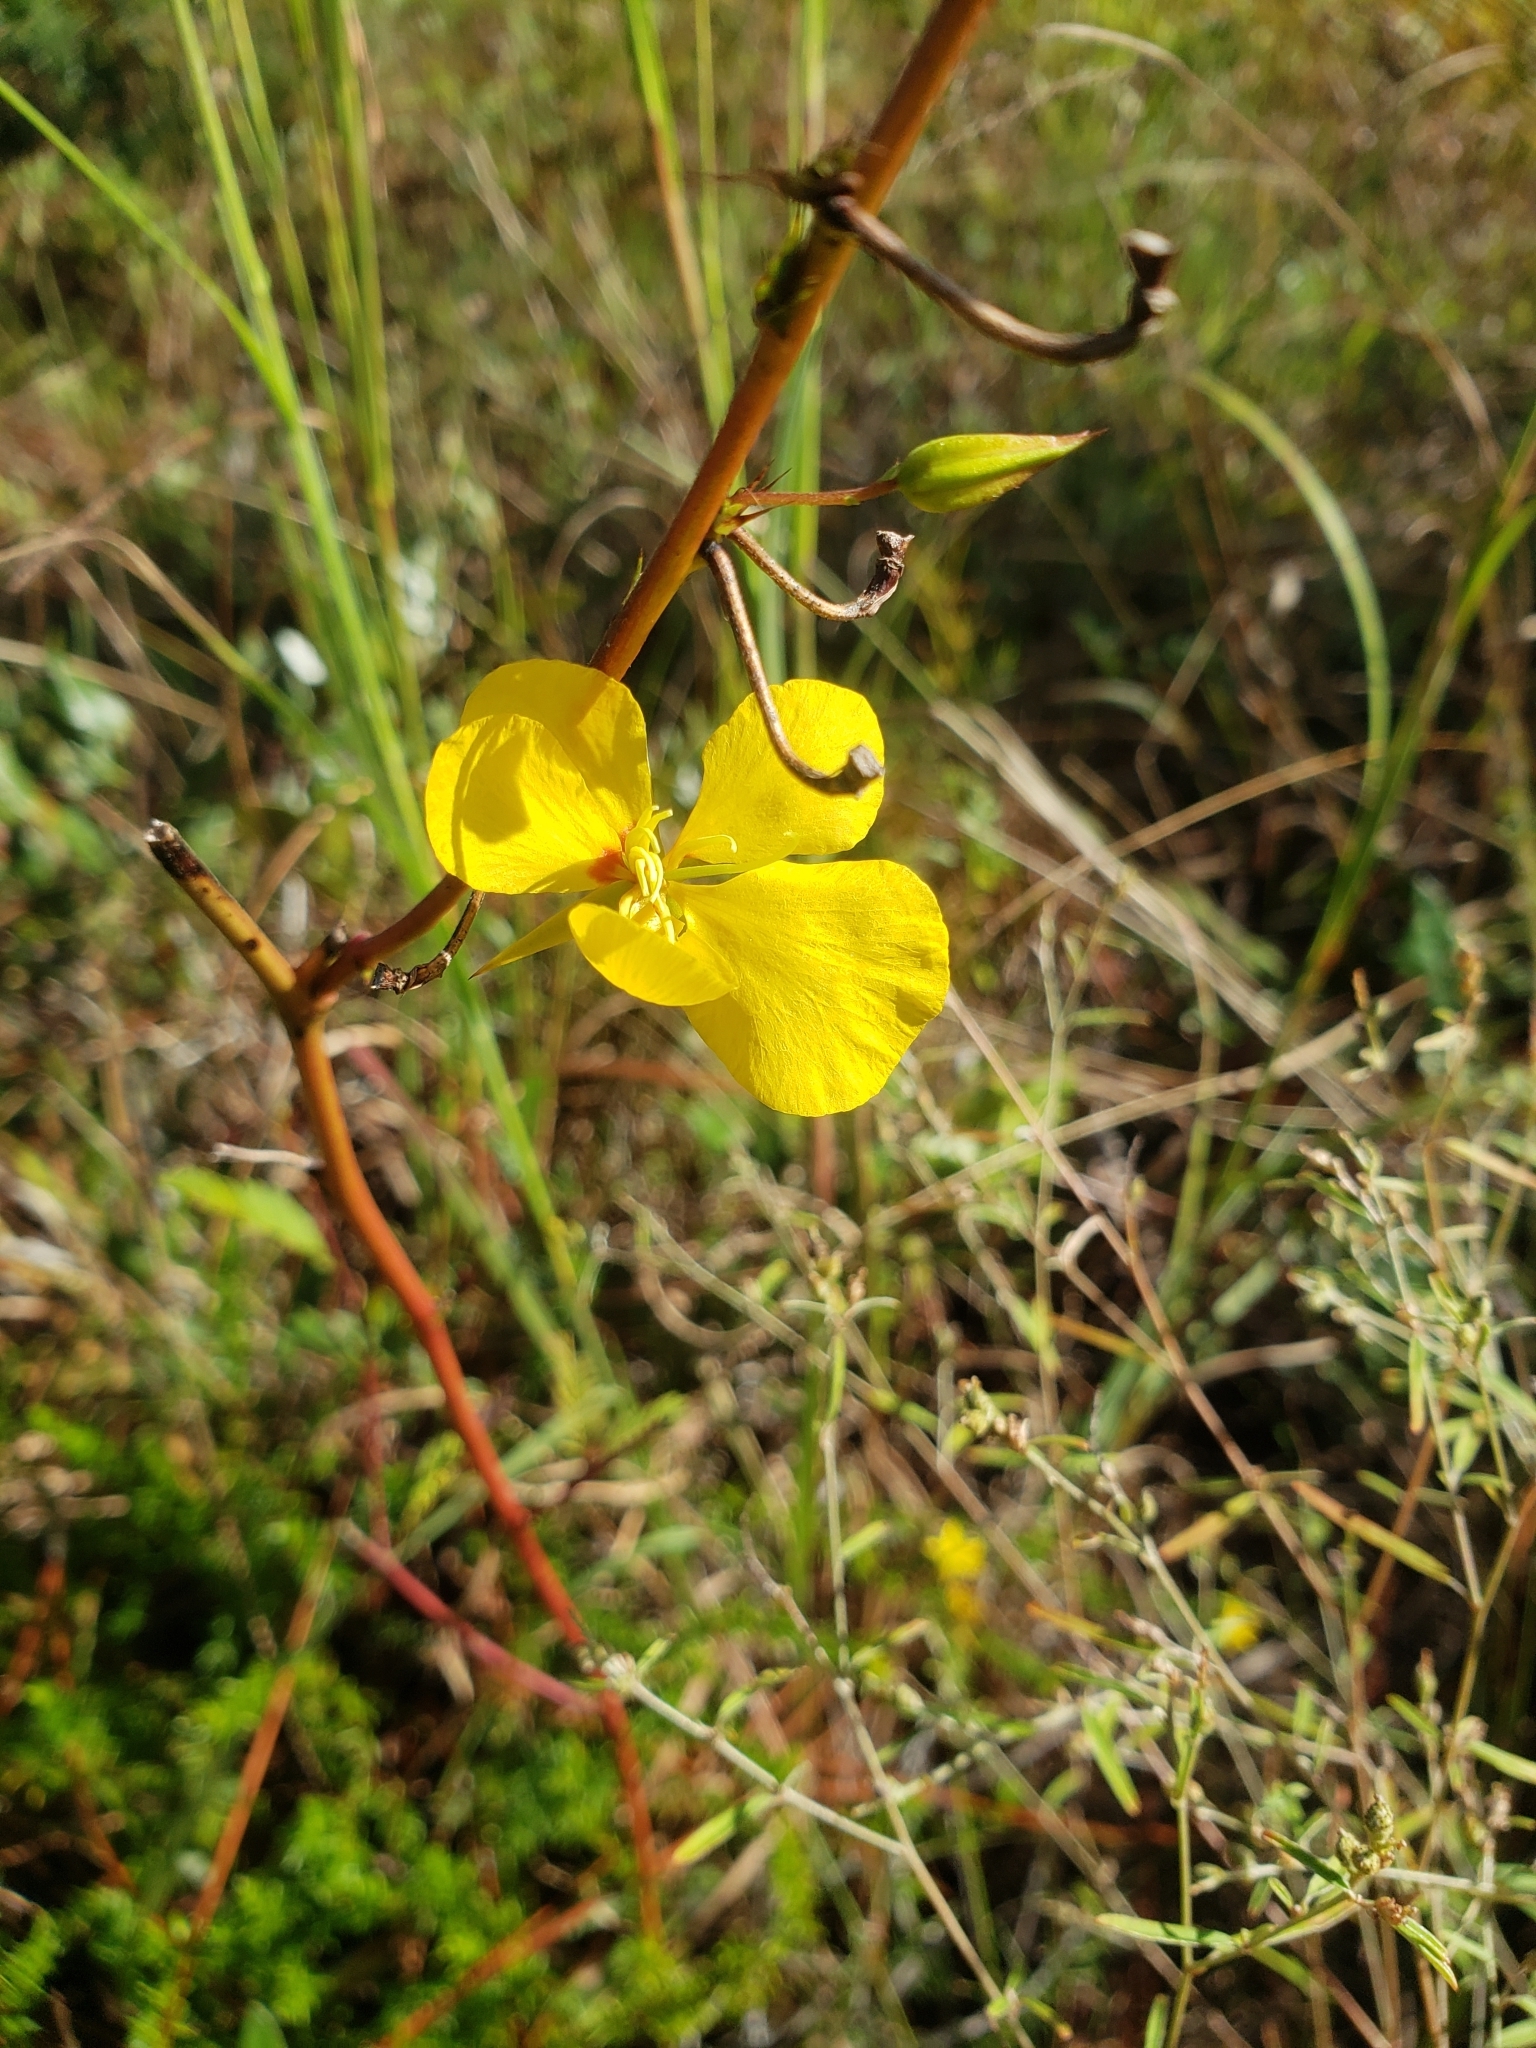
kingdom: Plantae
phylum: Tracheophyta
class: Magnoliopsida
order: Fabales
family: Fabaceae
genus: Chamaecrista
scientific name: Chamaecrista fasciculata
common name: Golden cassia
